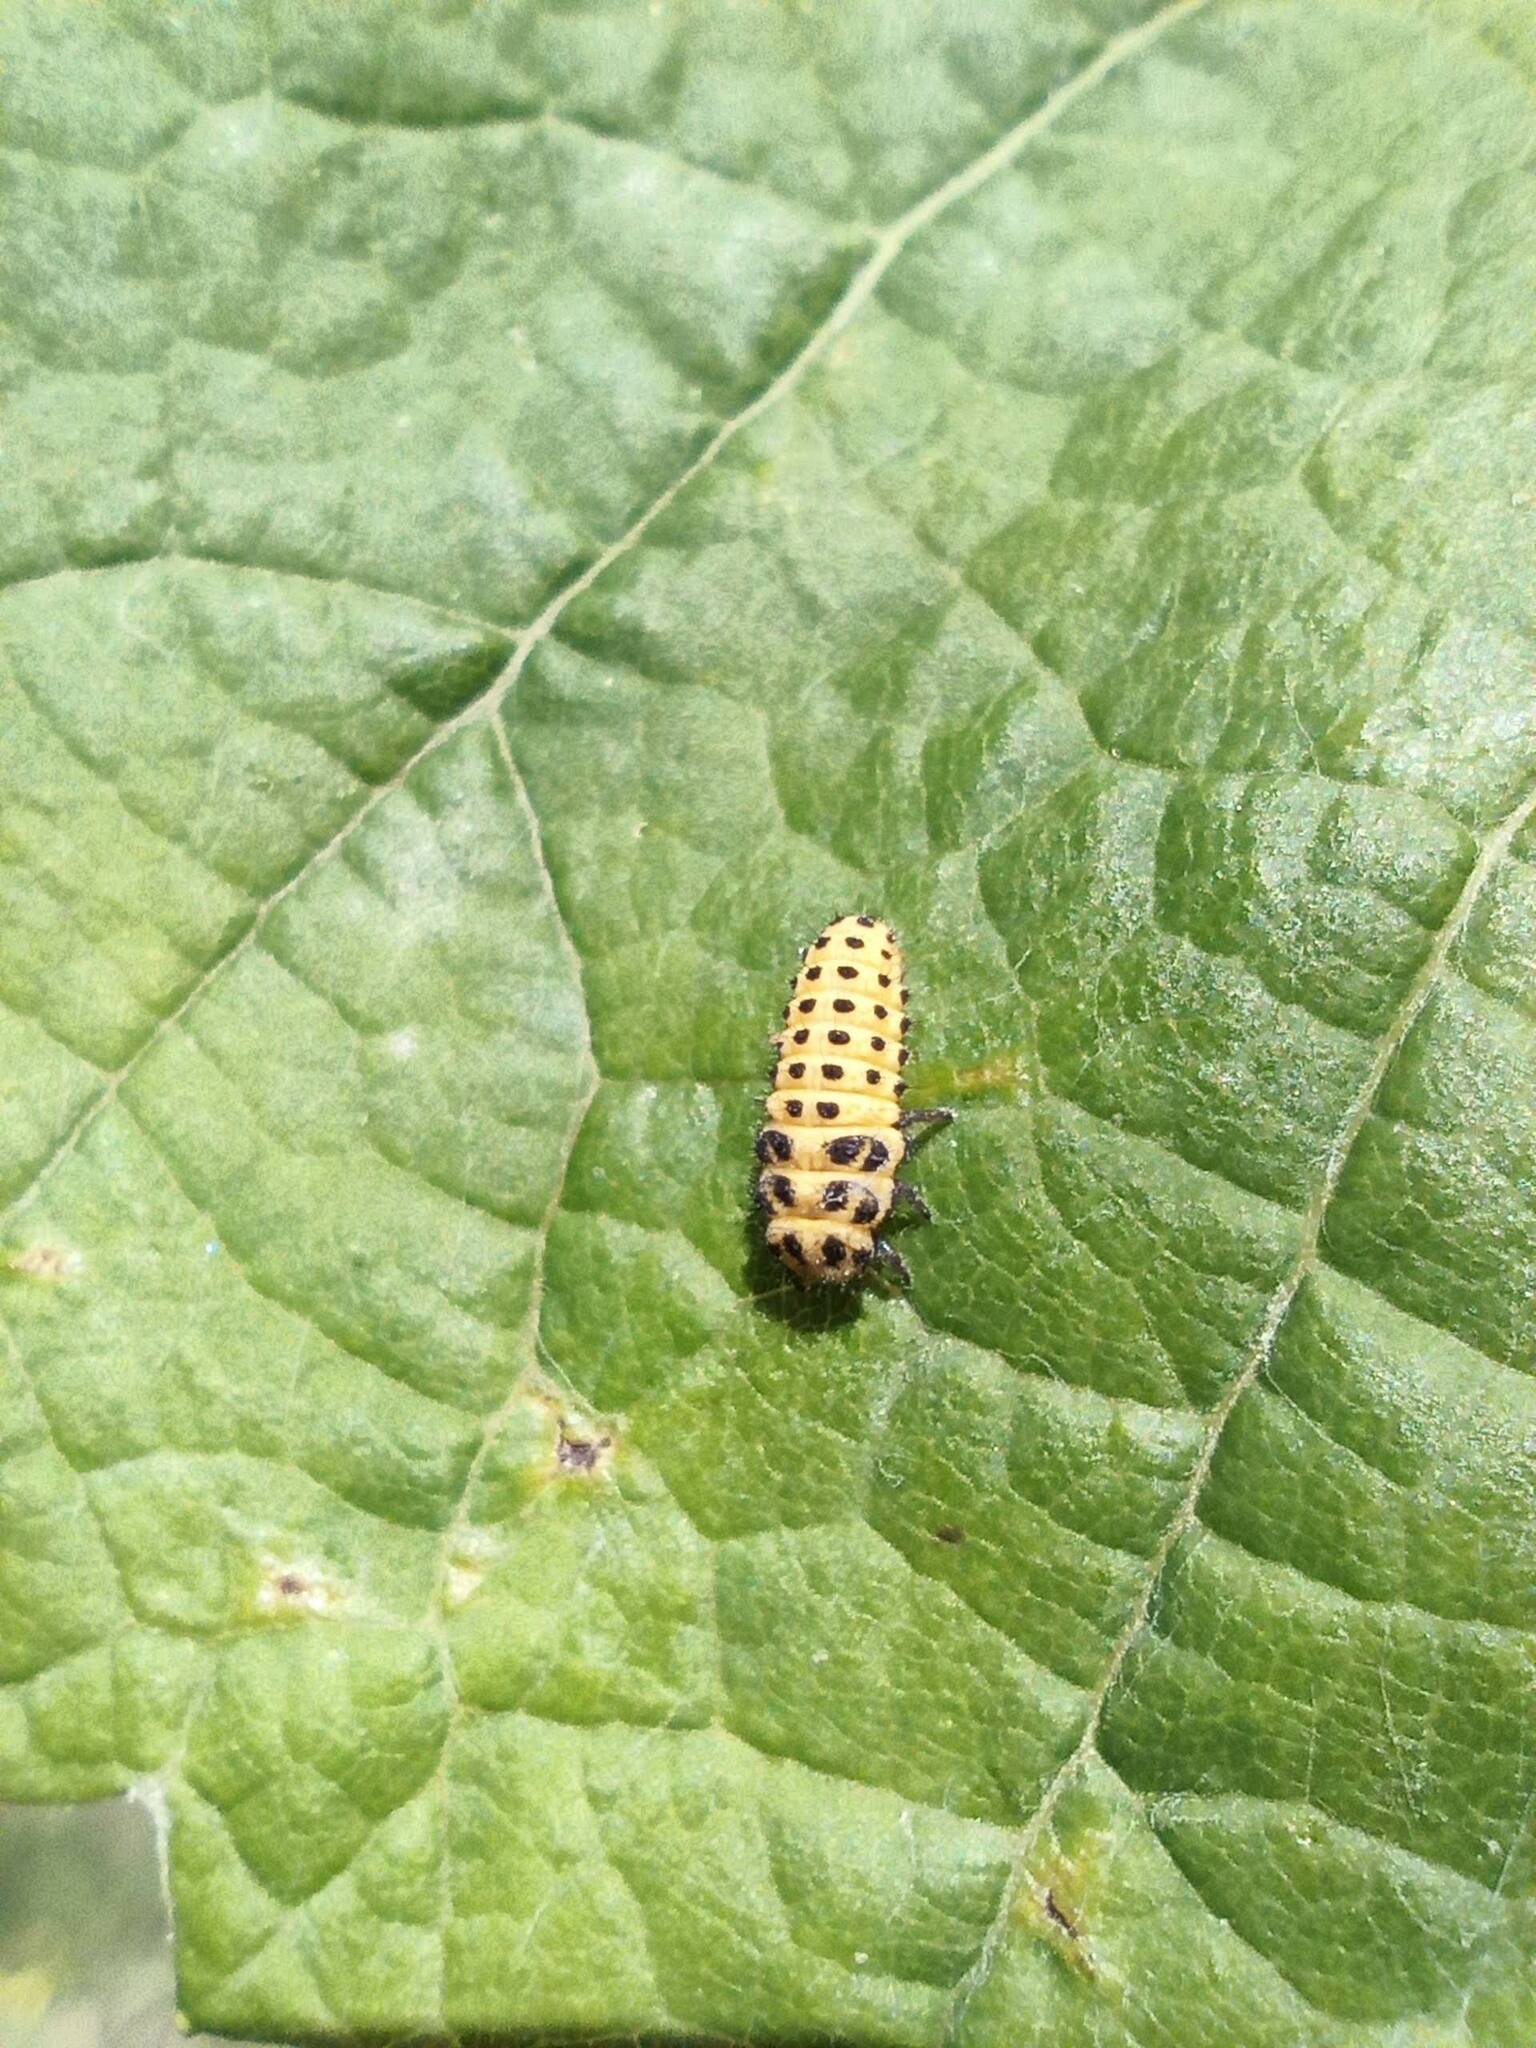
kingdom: Animalia
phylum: Arthropoda
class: Insecta
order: Coleoptera
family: Coccinellidae
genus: Psyllobora
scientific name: Psyllobora vigintiduopunctata
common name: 22-spot ladybird
